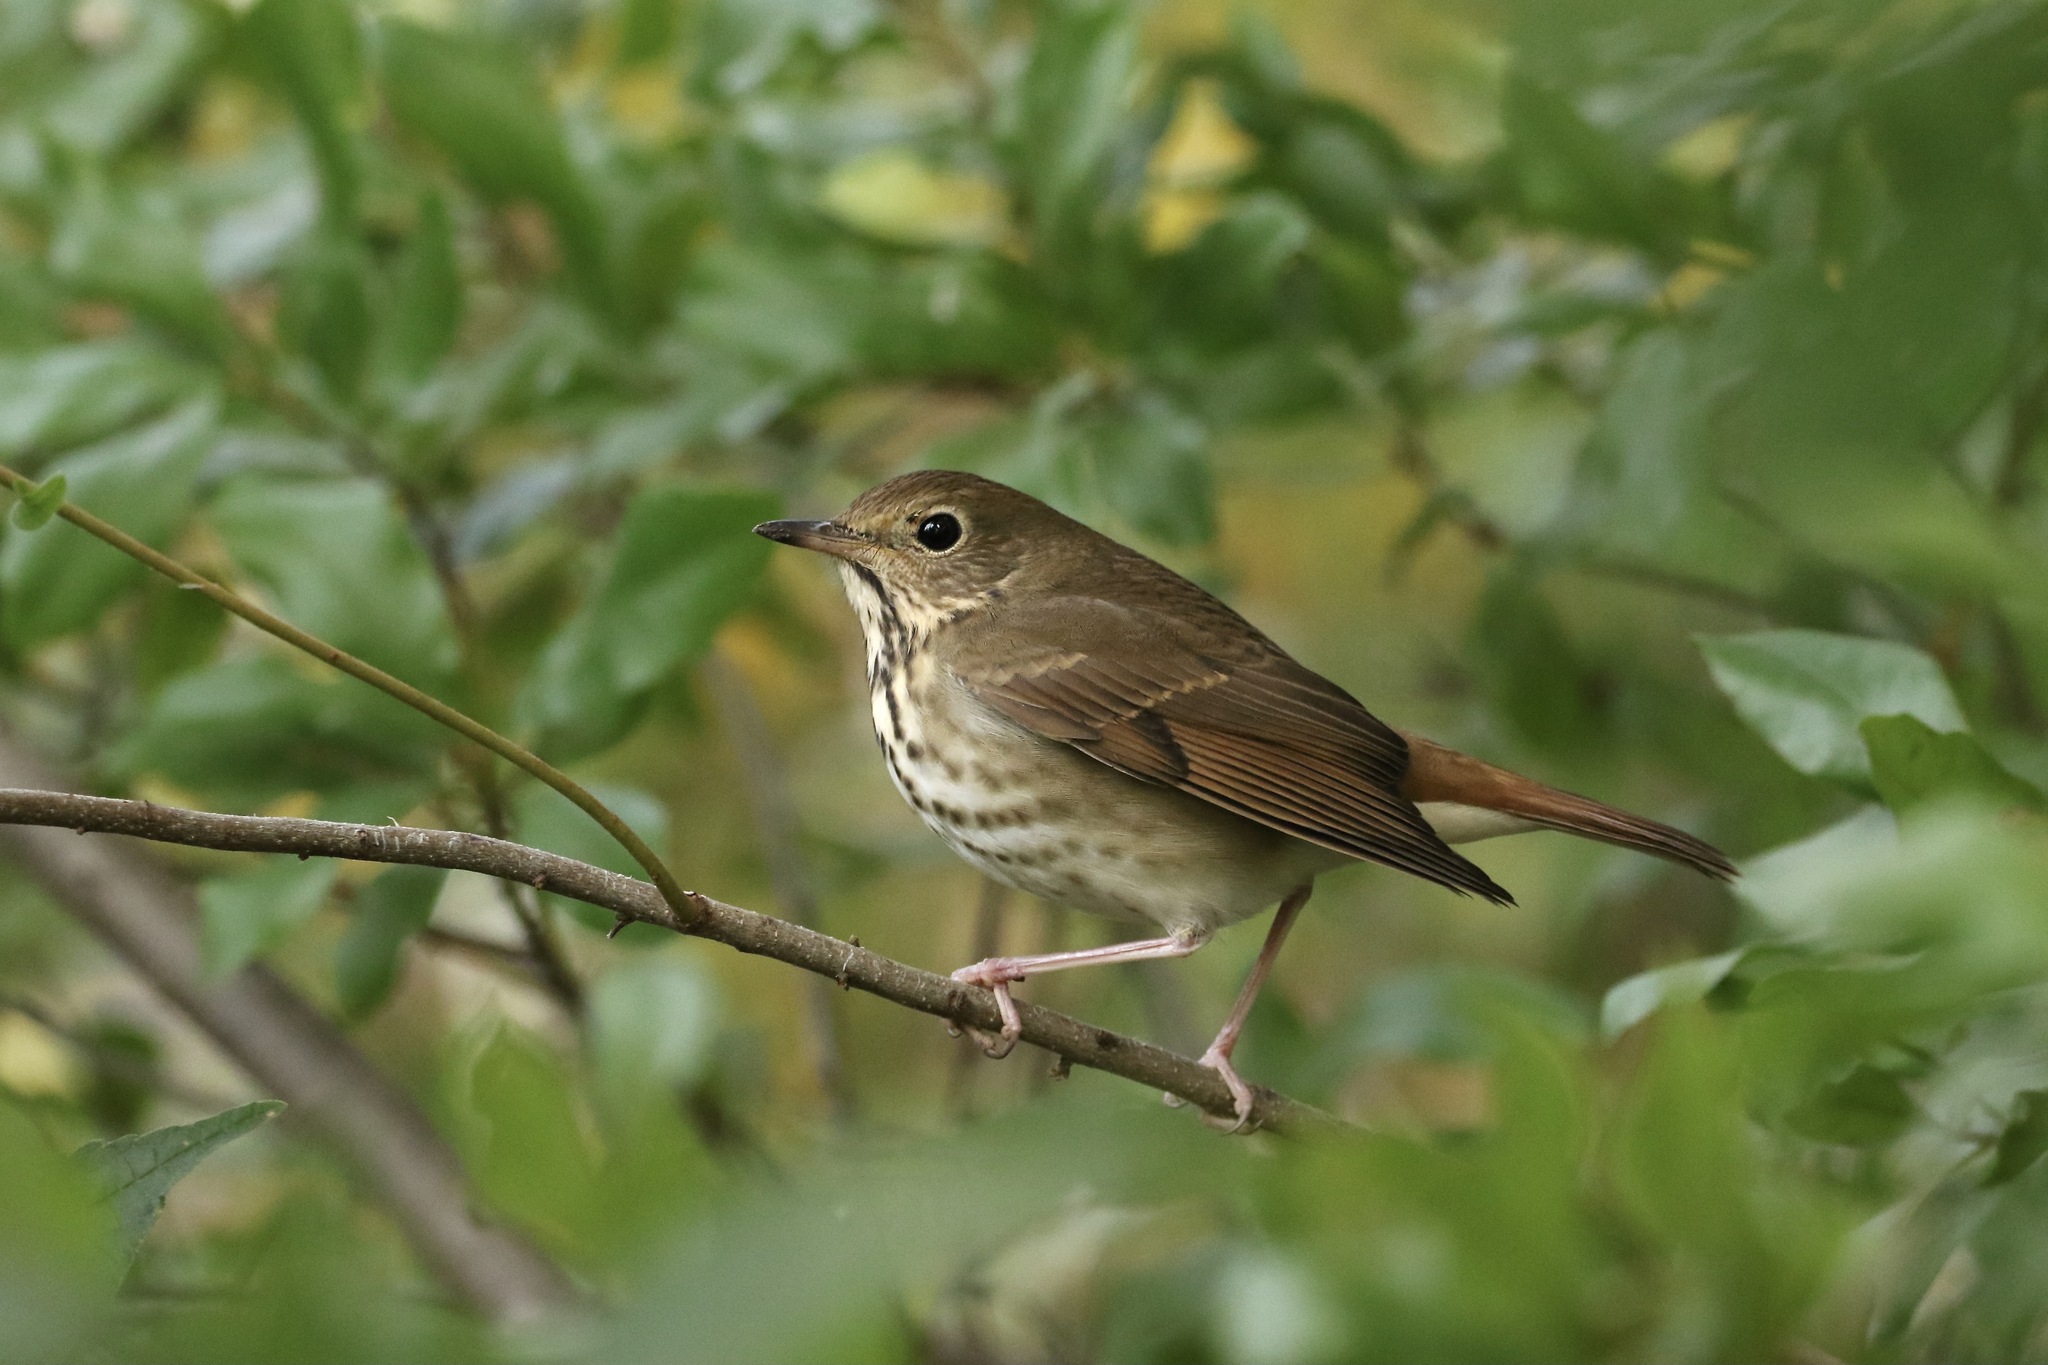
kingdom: Animalia
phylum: Chordata
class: Aves
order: Passeriformes
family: Turdidae
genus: Catharus
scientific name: Catharus guttatus
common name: Hermit thrush
